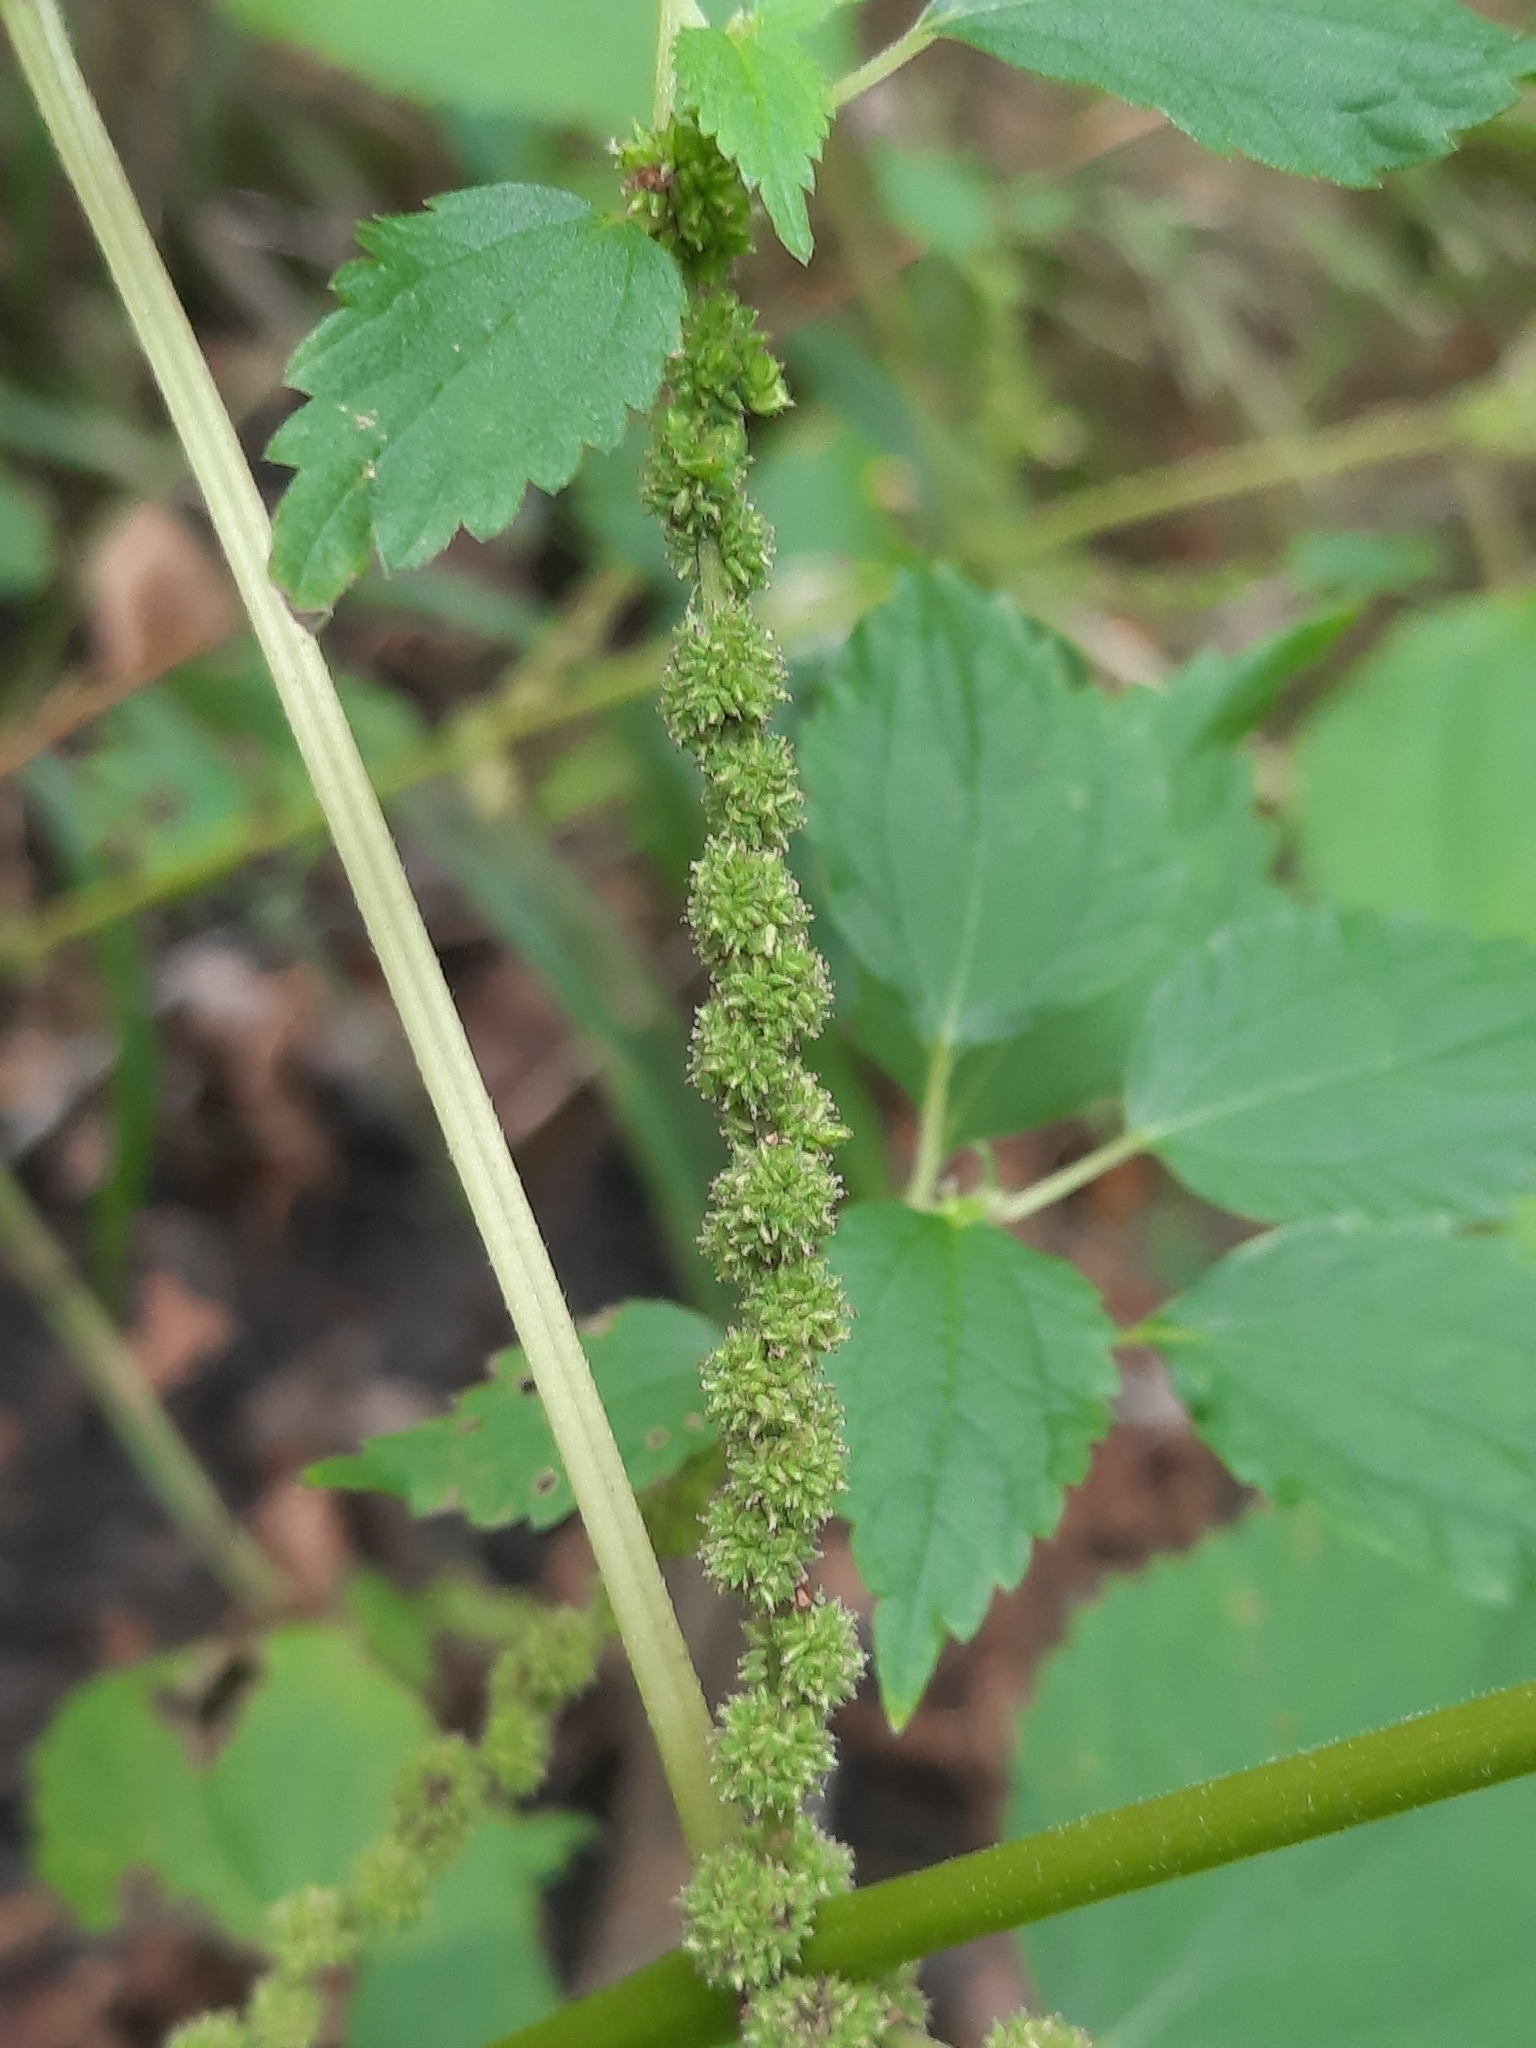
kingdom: Plantae
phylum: Tracheophyta
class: Magnoliopsida
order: Rosales
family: Urticaceae
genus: Boehmeria
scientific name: Boehmeria cylindrica
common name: Bog-hemp
